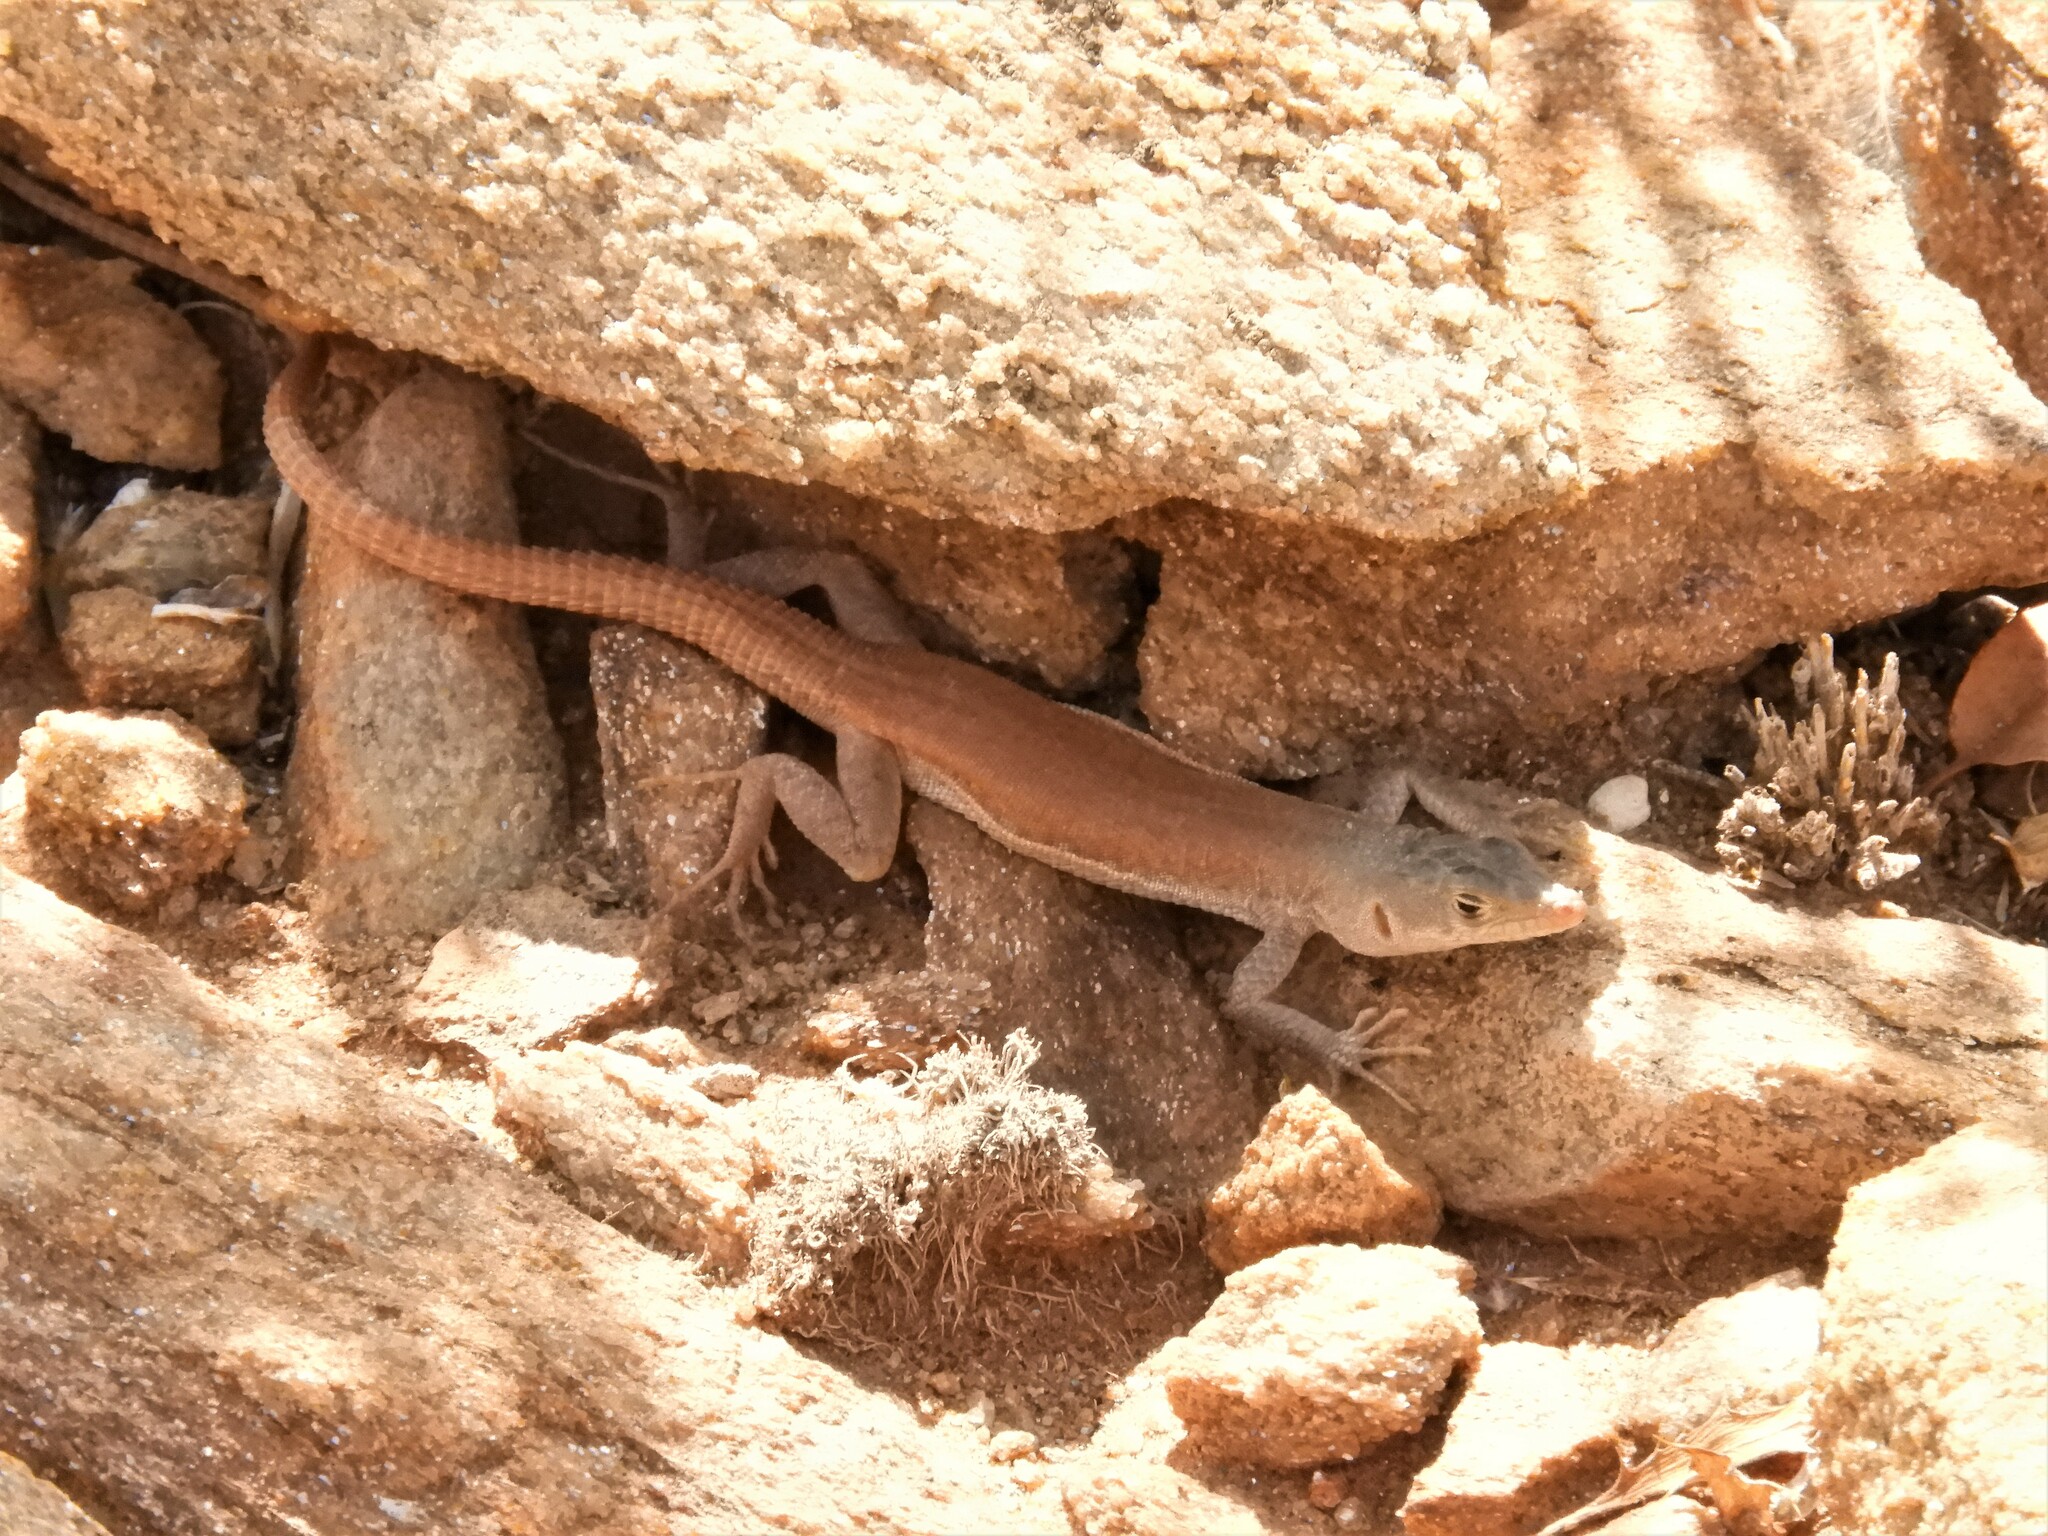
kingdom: Animalia
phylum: Chordata
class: Squamata
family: Lacertidae
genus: Pedioplanis
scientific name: Pedioplanis inornata
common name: Plain sand lizard
